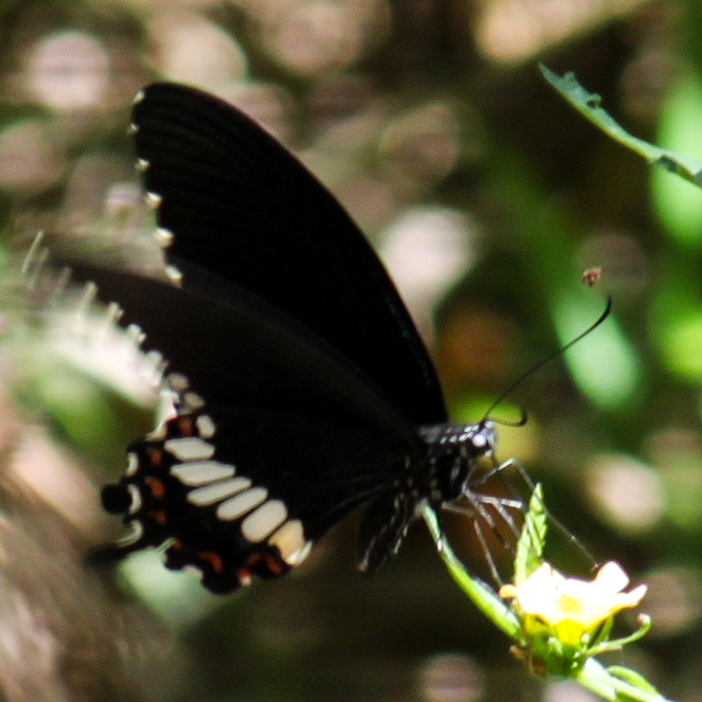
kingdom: Animalia
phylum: Arthropoda
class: Insecta
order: Lepidoptera
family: Papilionidae
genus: Papilio
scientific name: Papilio polytes
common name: Common mormon
